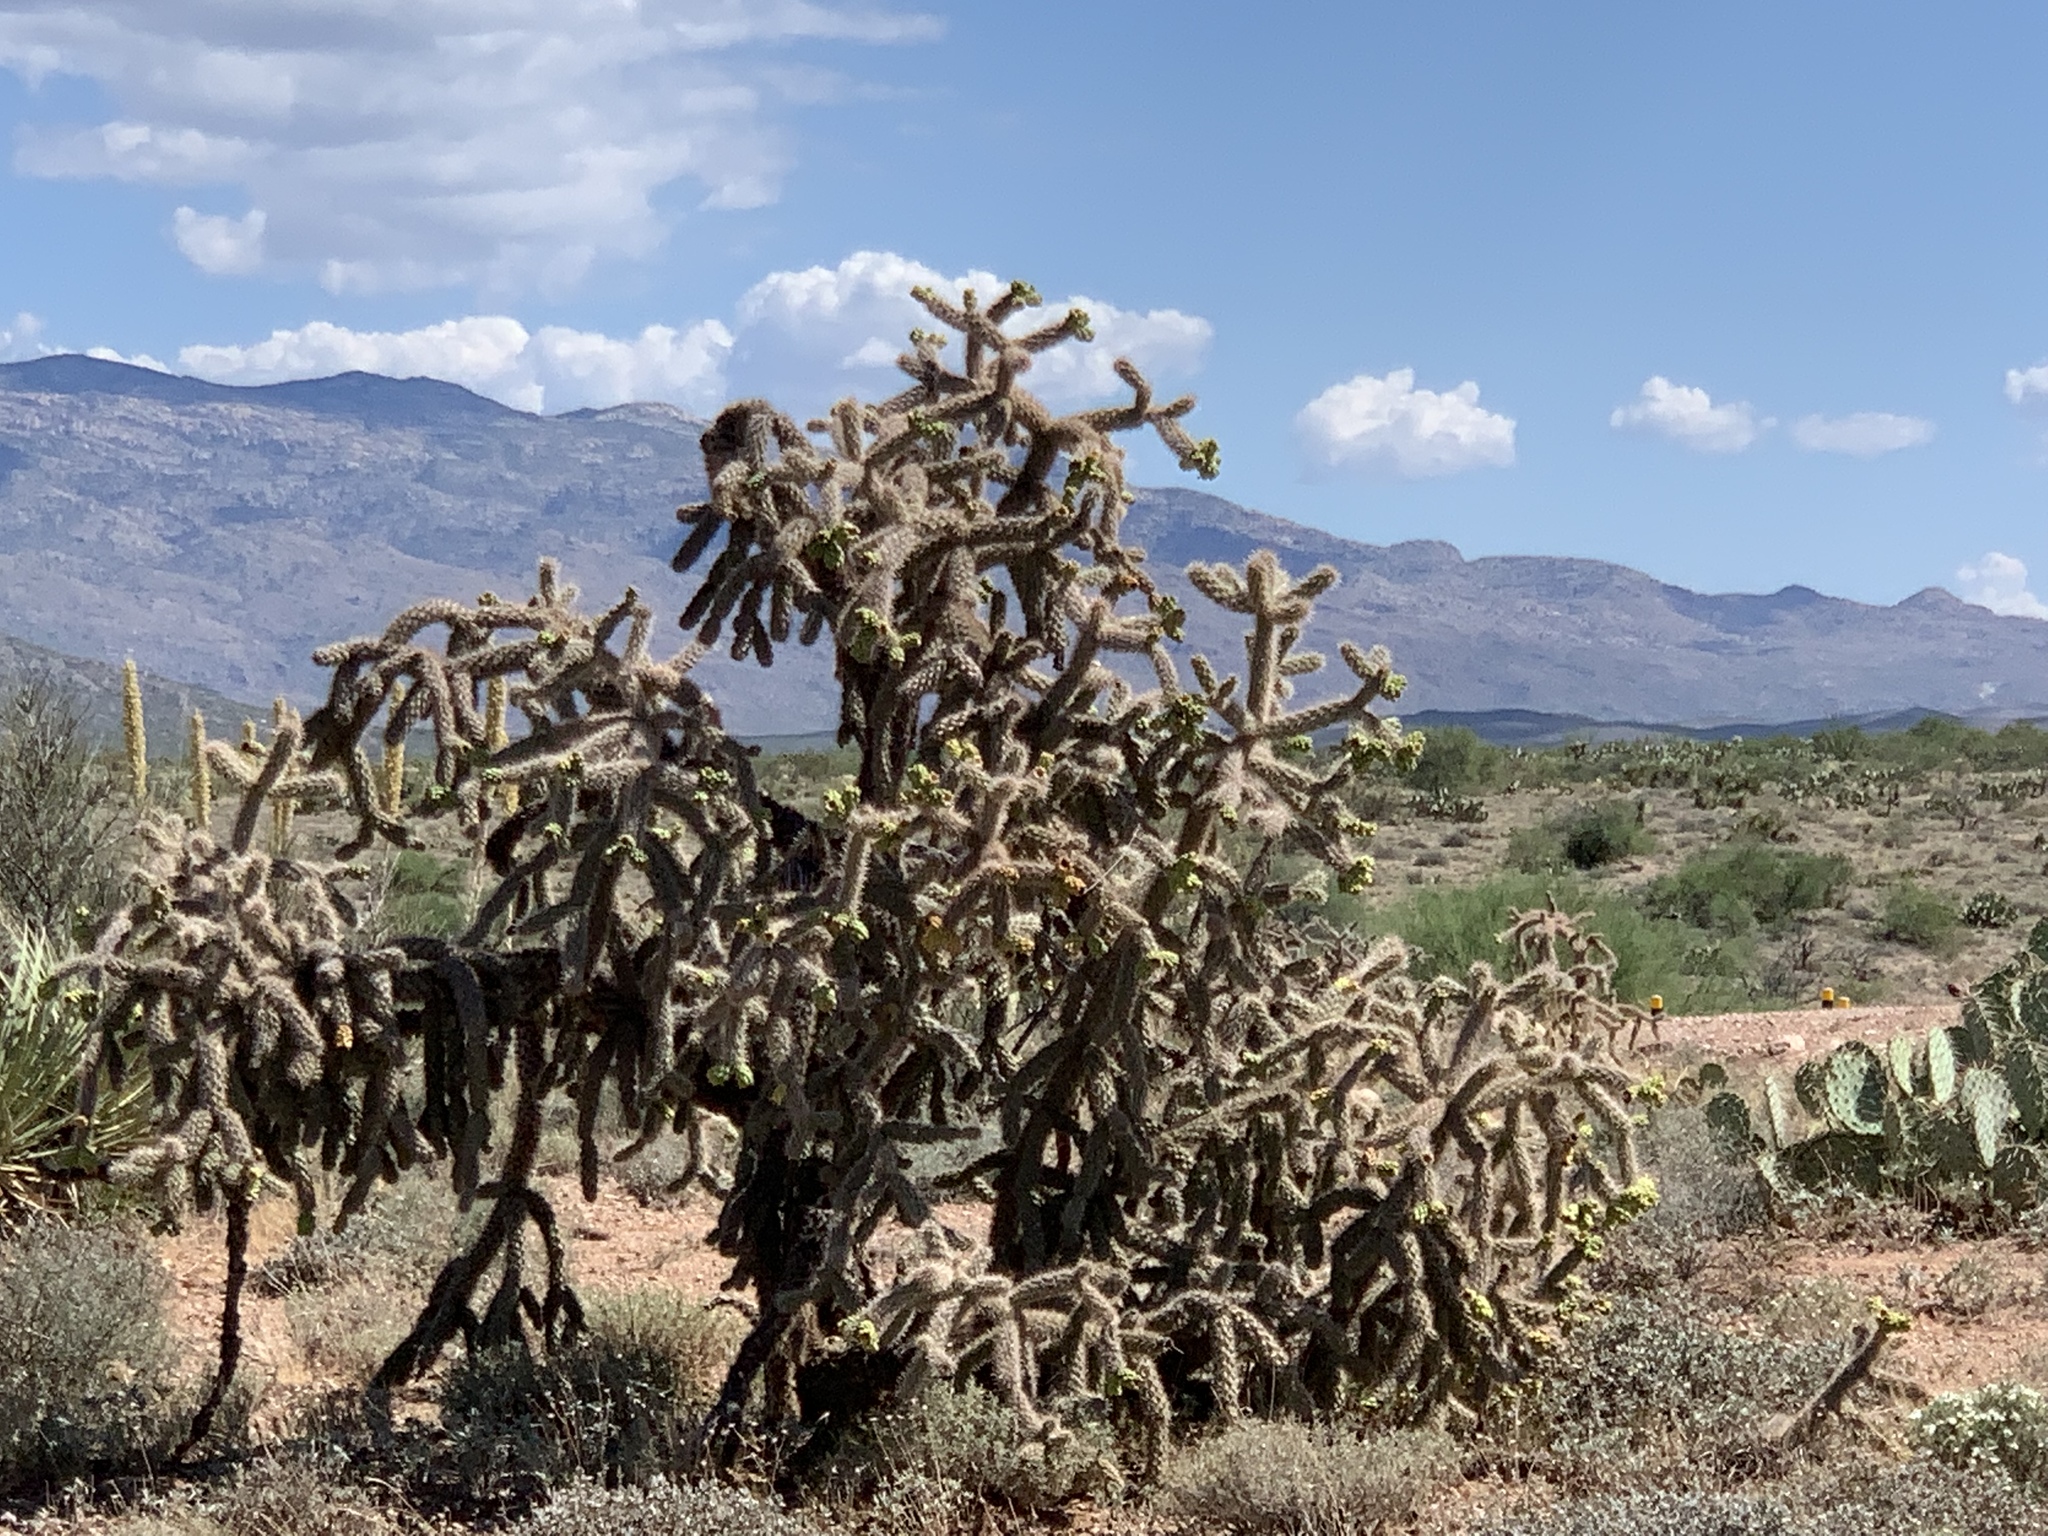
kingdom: Plantae
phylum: Tracheophyta
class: Magnoliopsida
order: Caryophyllales
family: Cactaceae
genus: Cylindropuntia
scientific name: Cylindropuntia imbricata
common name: Candelabrum cactus
